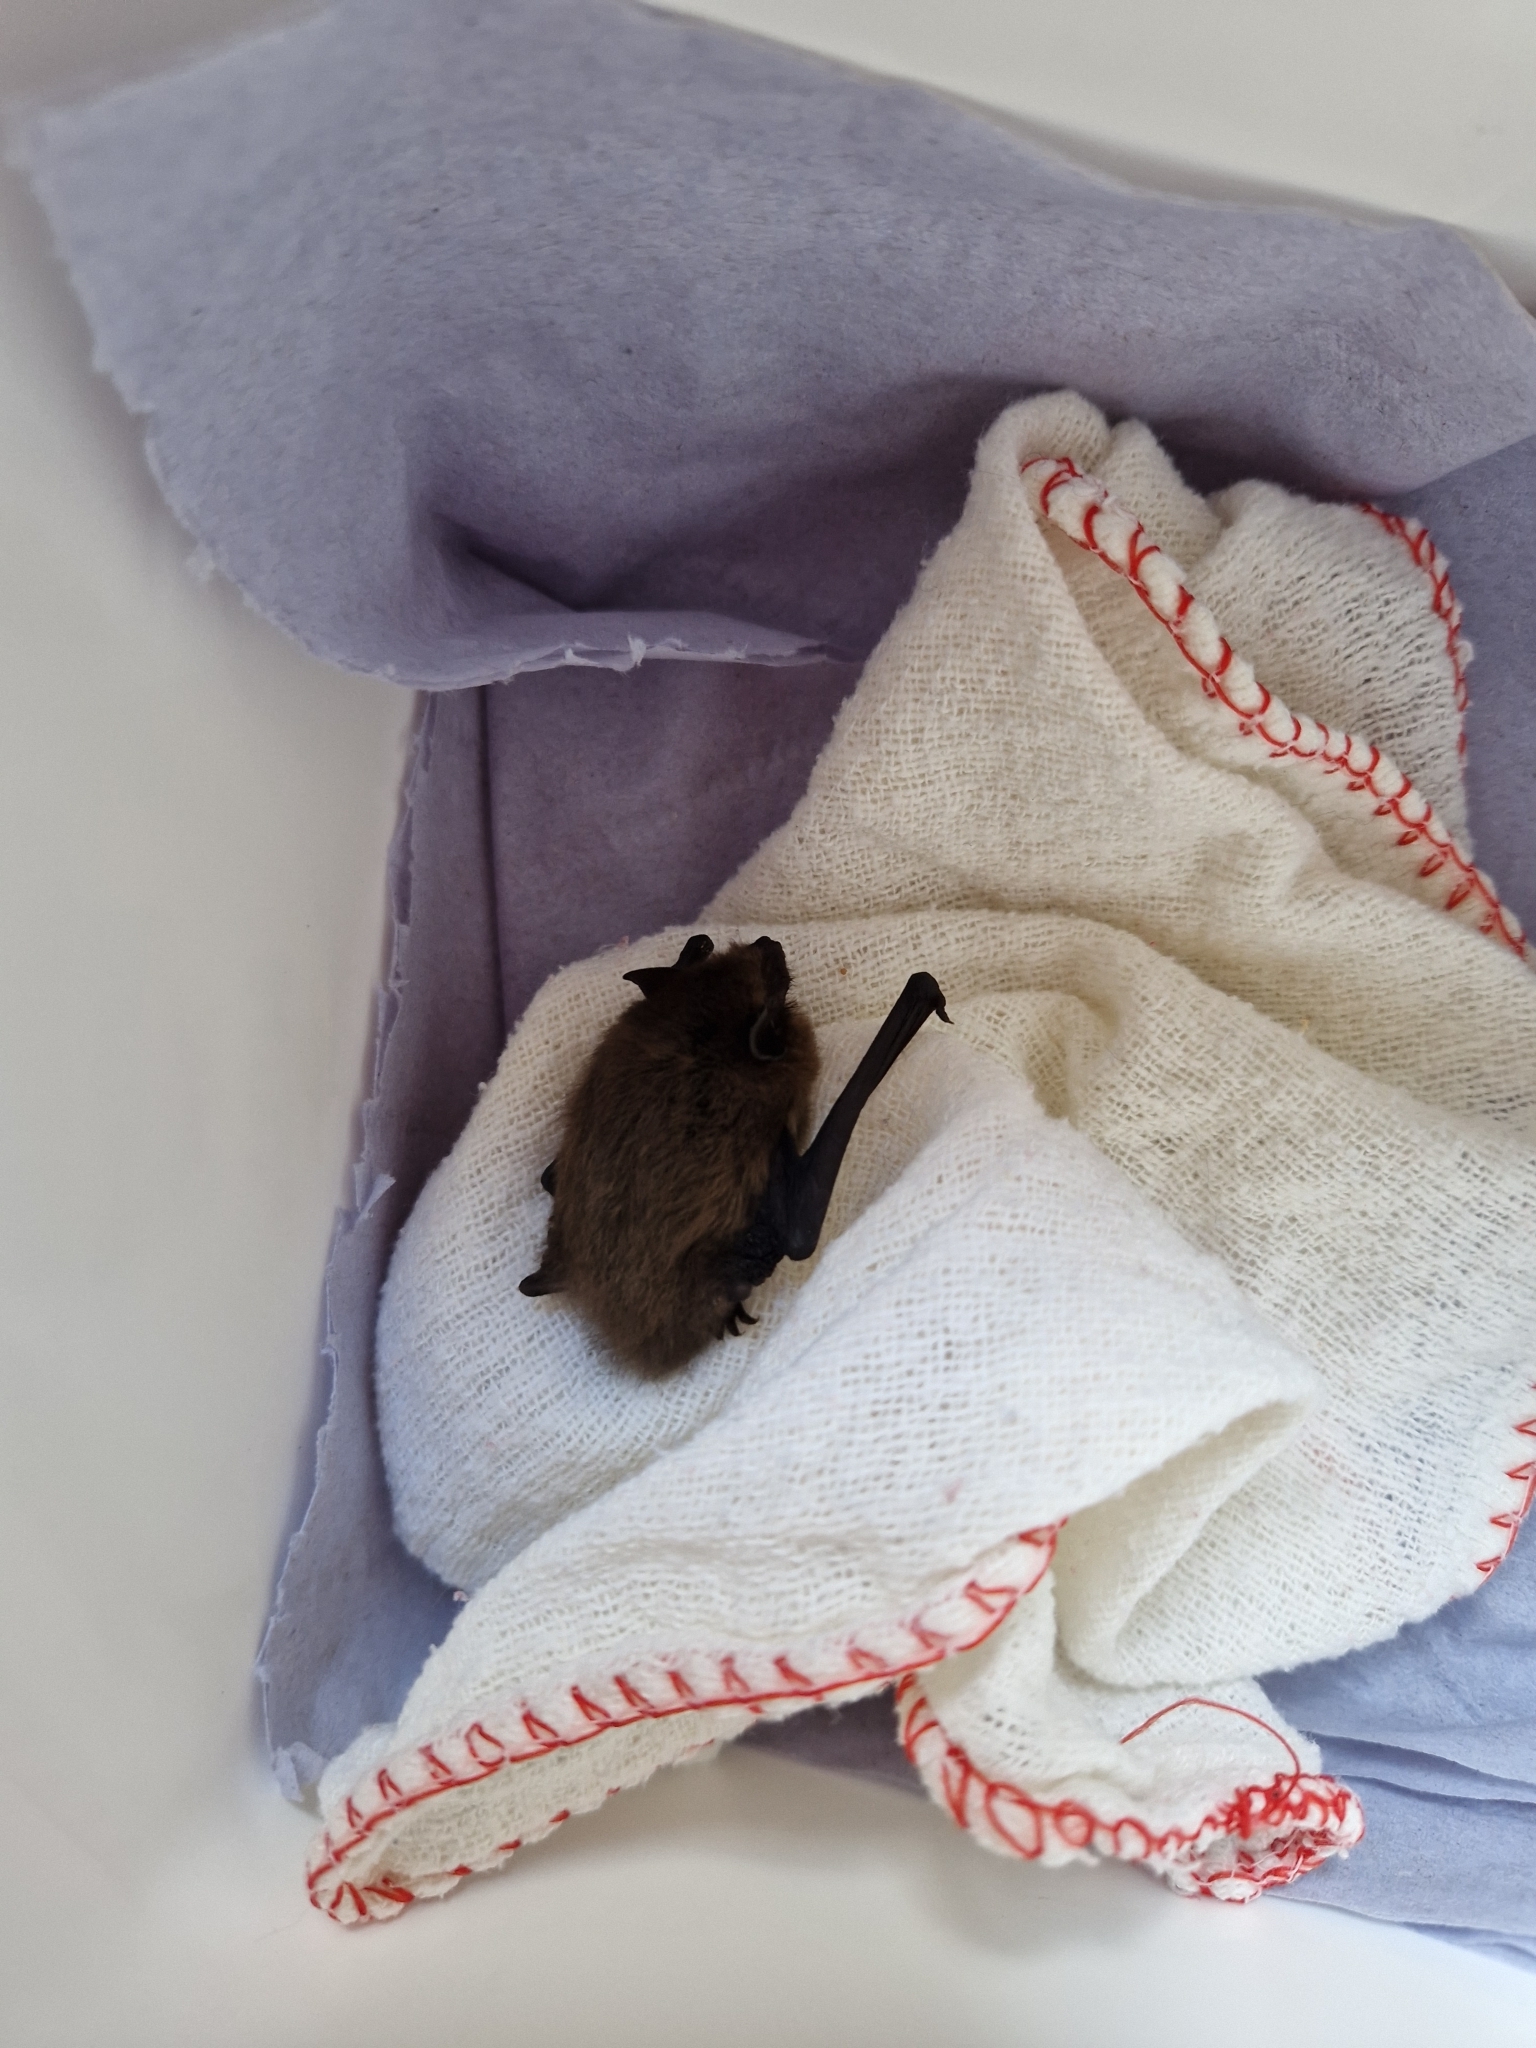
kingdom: Animalia
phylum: Chordata
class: Mammalia
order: Chiroptera
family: Vespertilionidae
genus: Pipistrellus
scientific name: Pipistrellus pipistrellus
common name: Common pipistrelle
